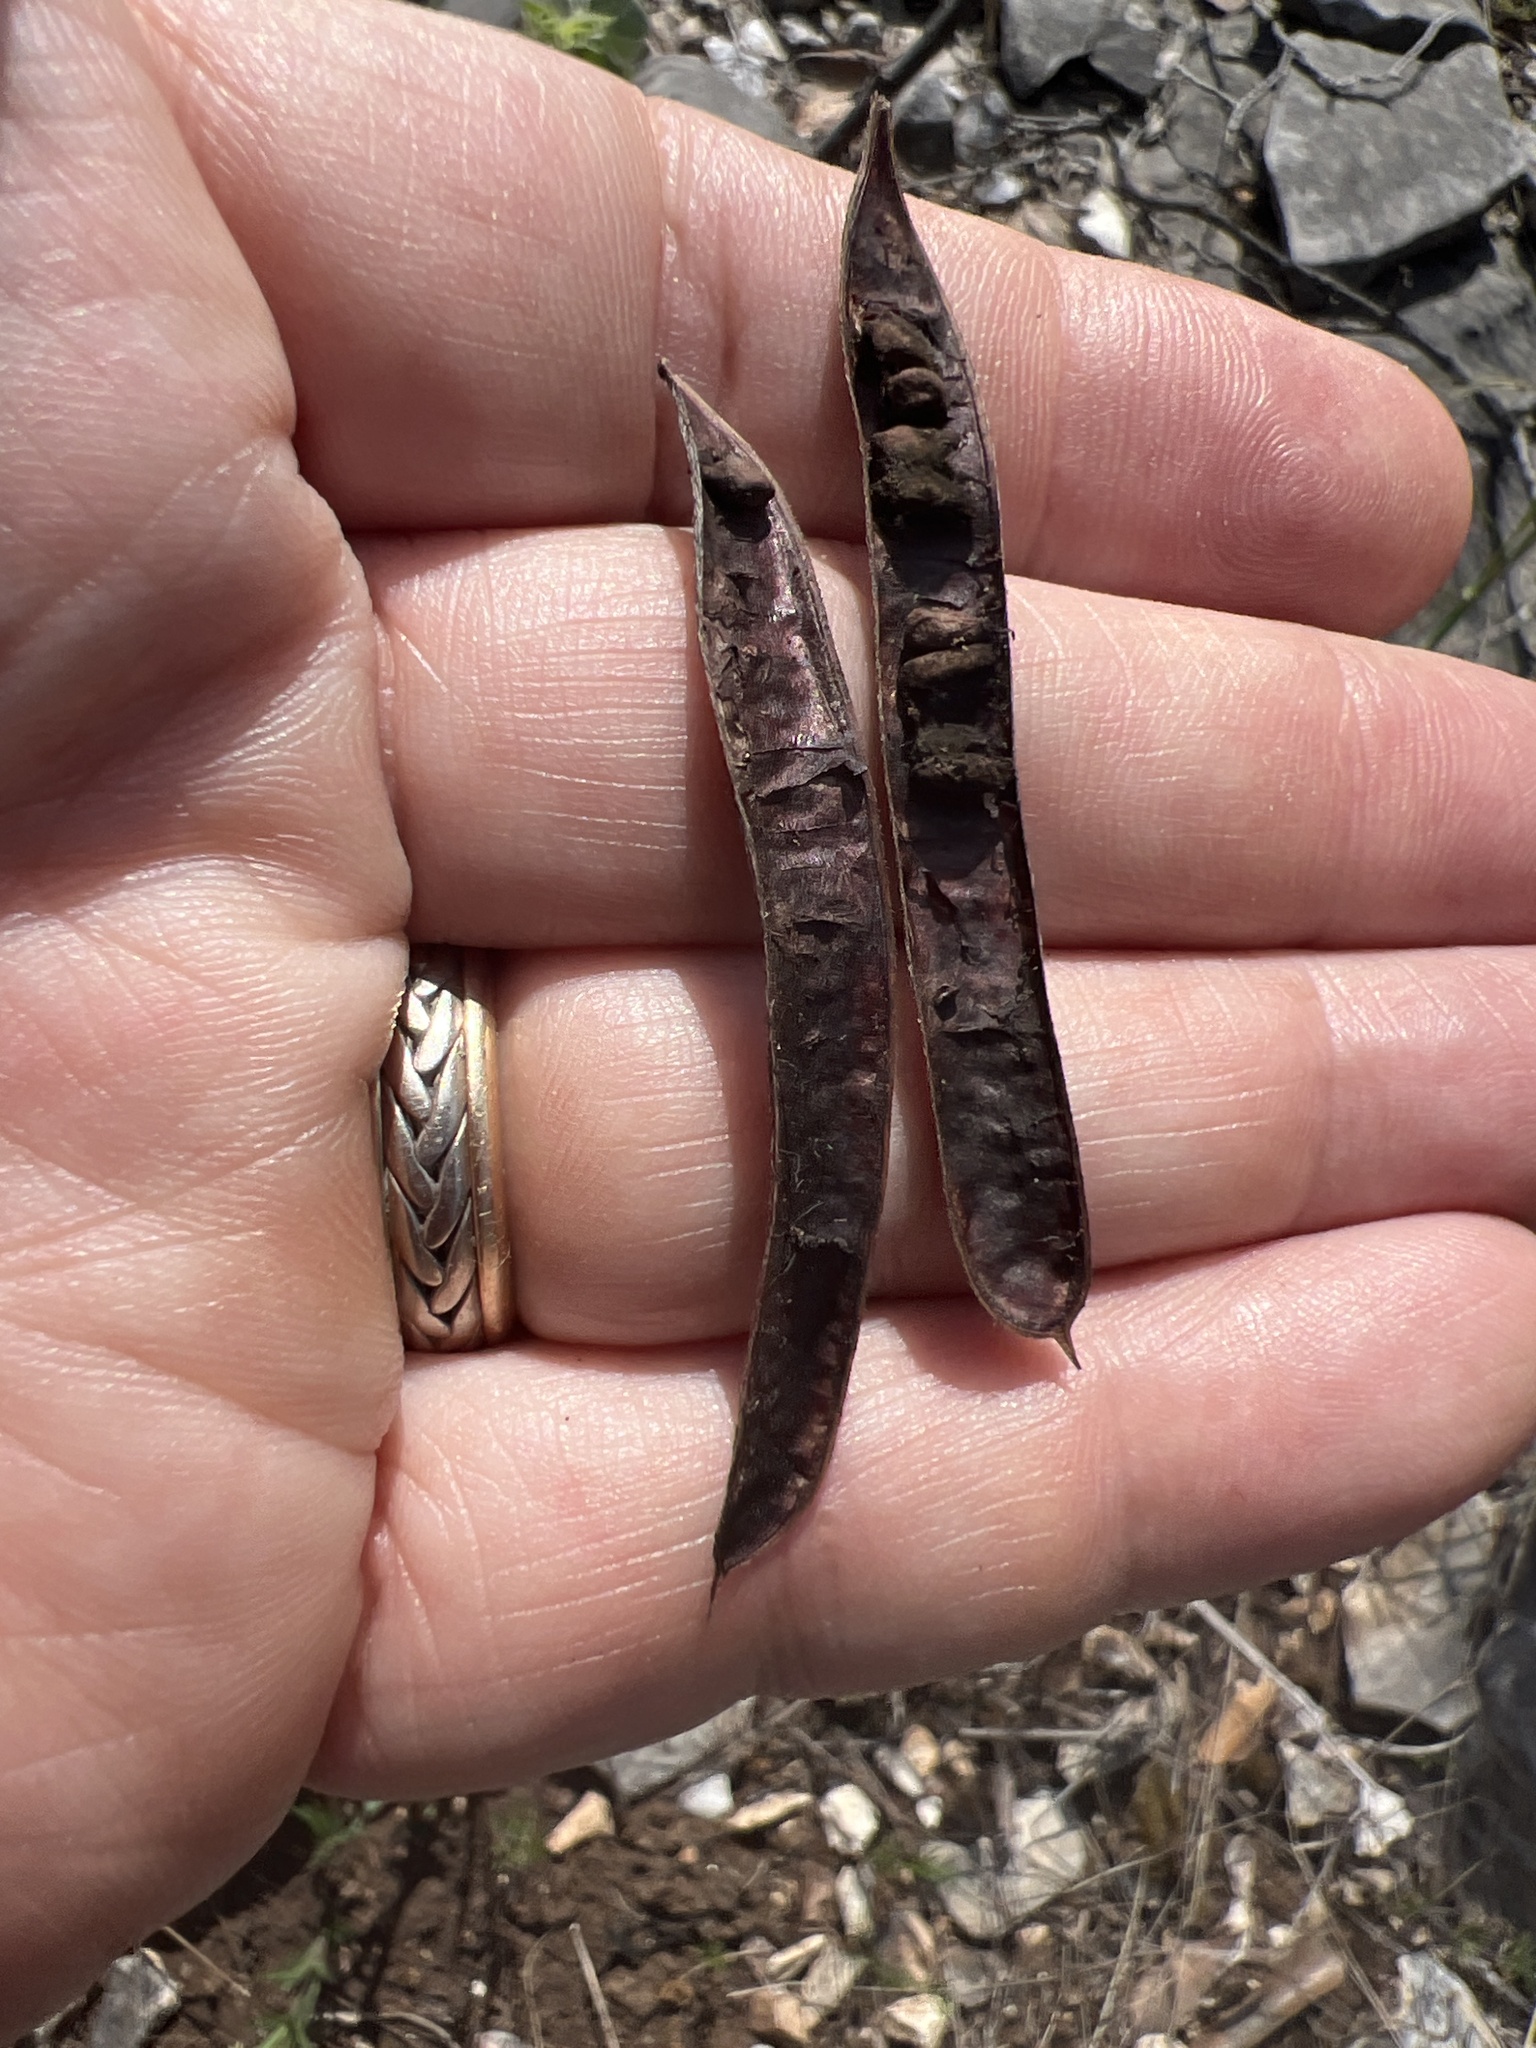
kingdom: Plantae
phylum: Tracheophyta
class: Magnoliopsida
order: Fabales
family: Fabaceae
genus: Senna
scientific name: Senna lindheimeriana
